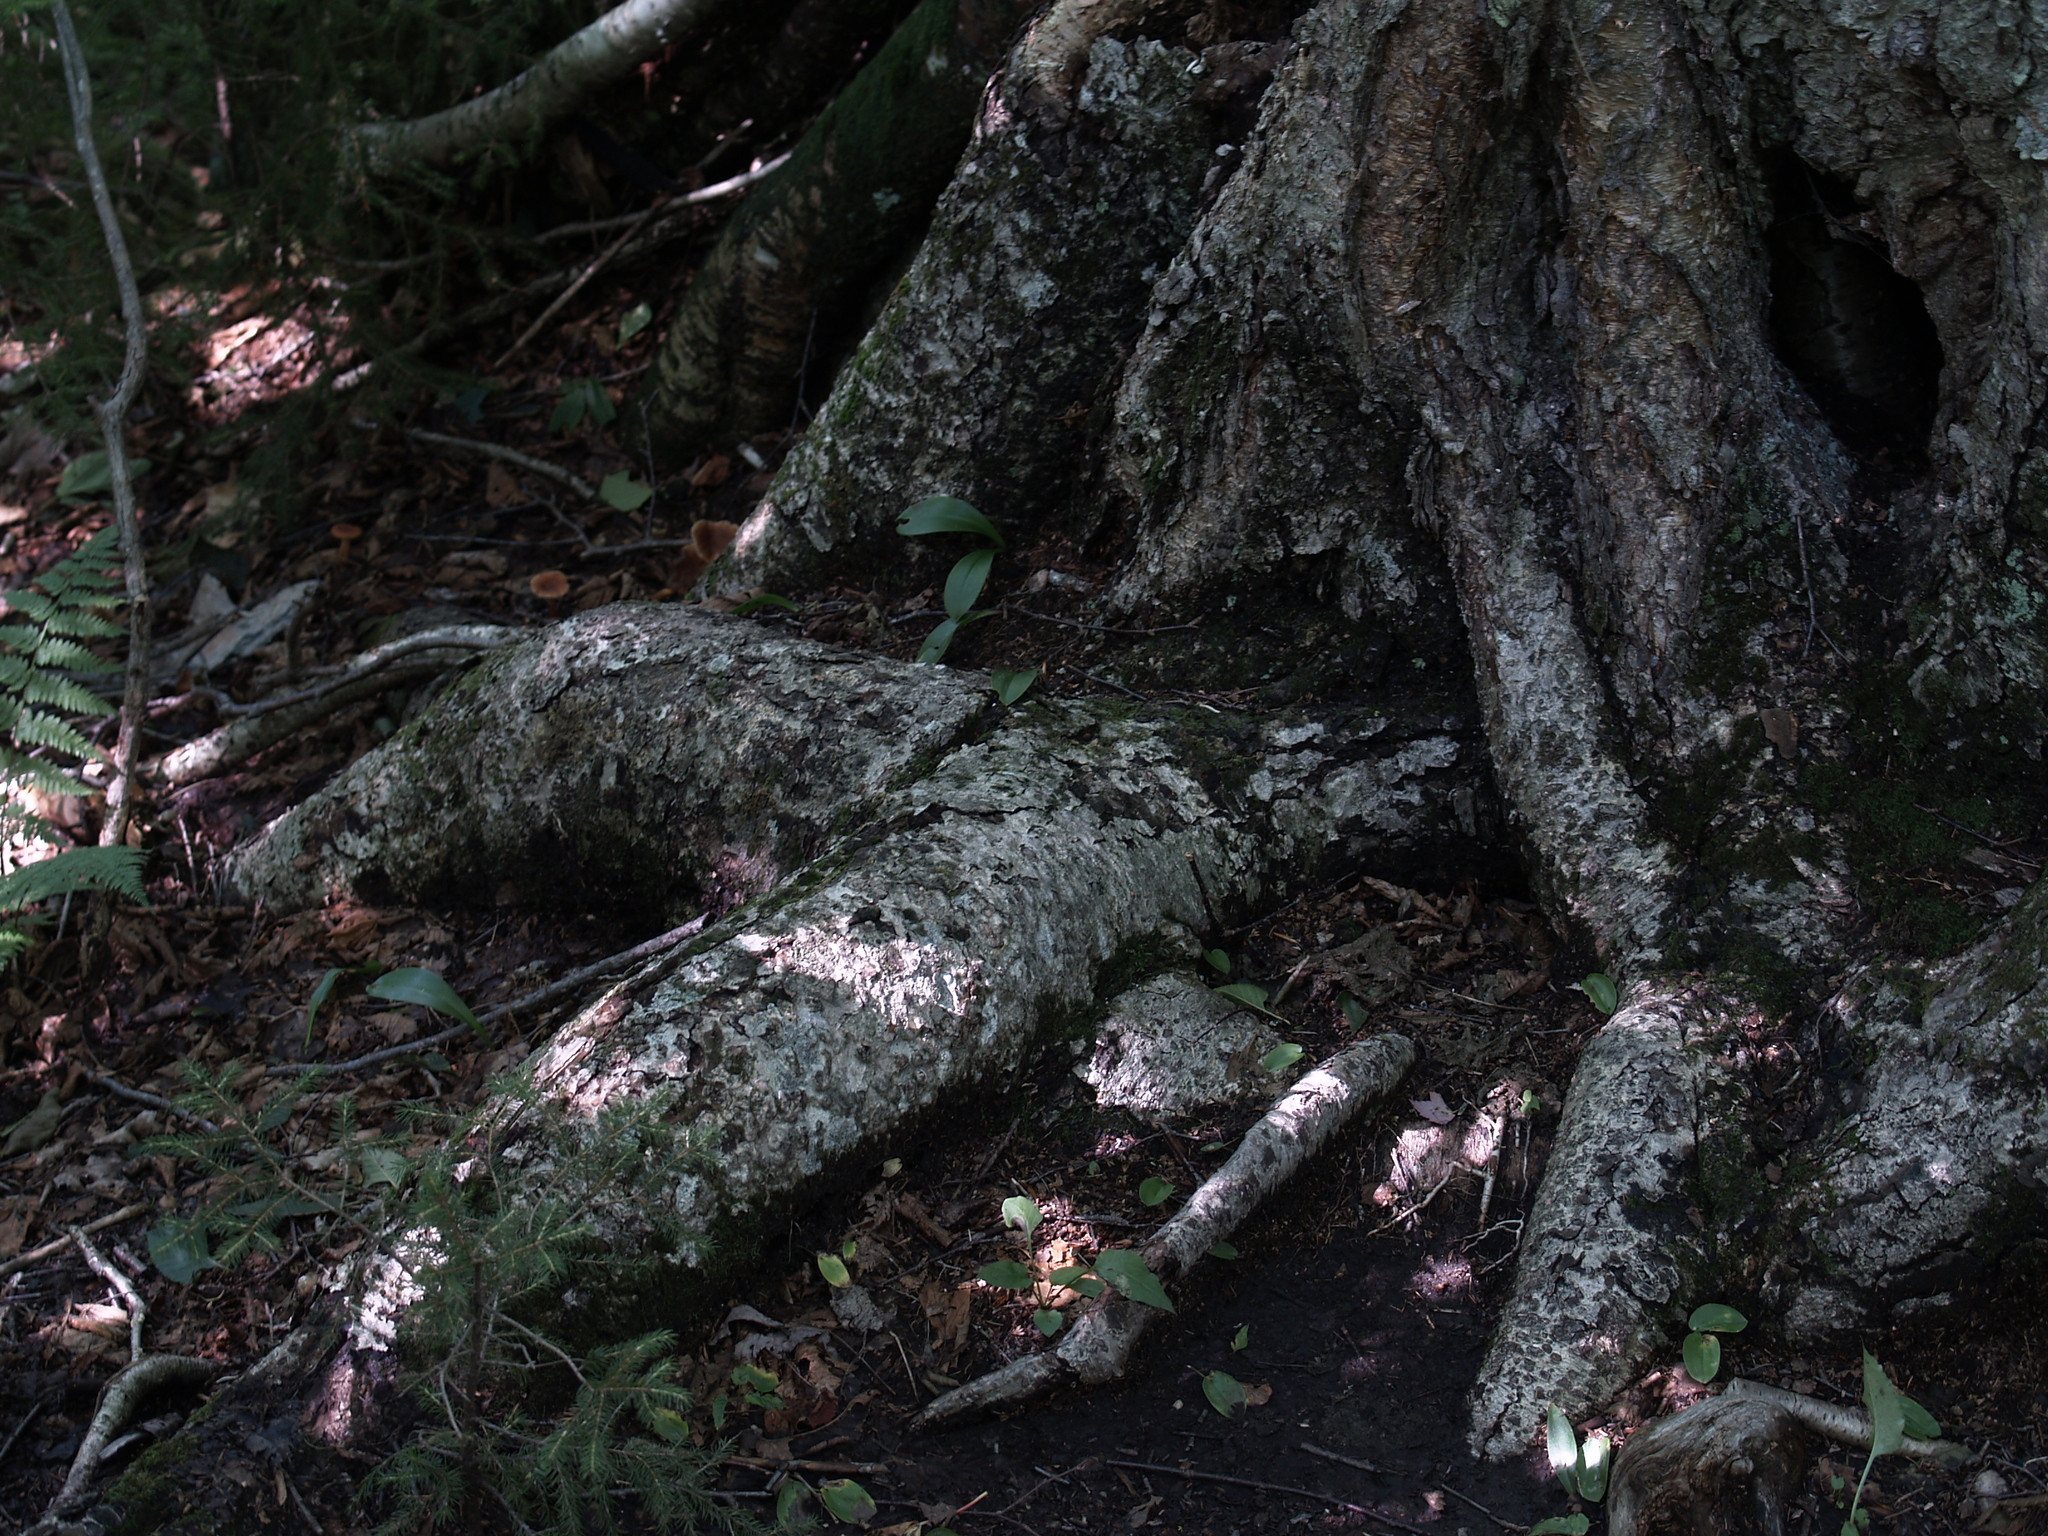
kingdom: Plantae
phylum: Tracheophyta
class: Liliopsida
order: Liliales
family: Liliaceae
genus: Clintonia
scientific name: Clintonia borealis
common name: Yellow clintonia
